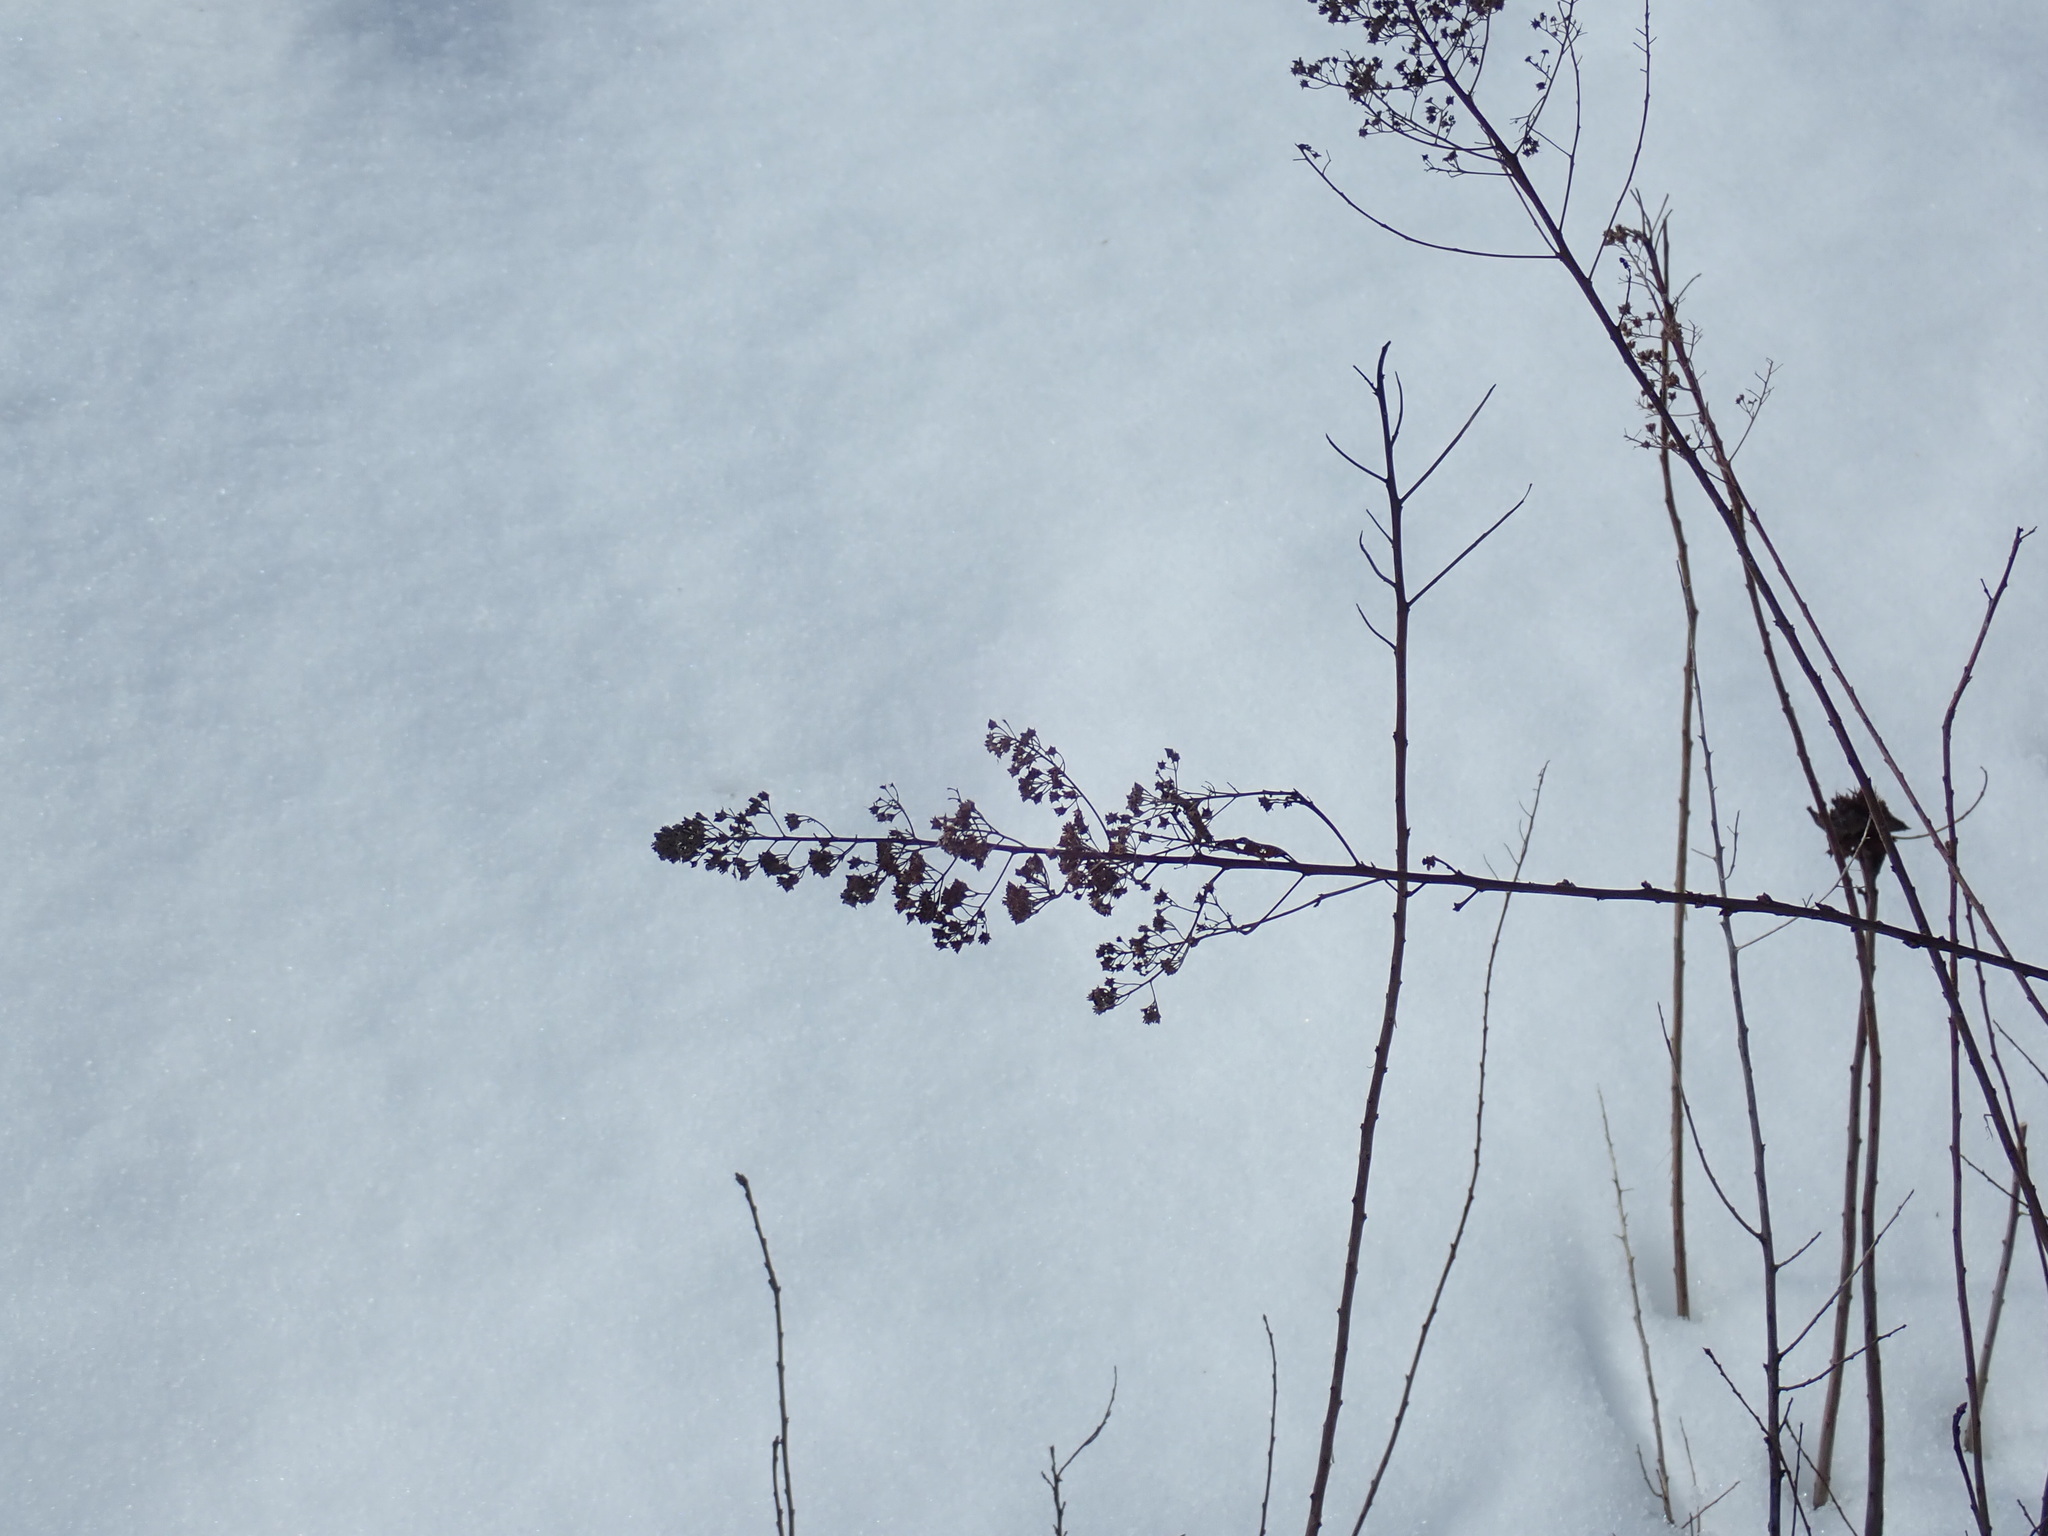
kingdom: Plantae
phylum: Tracheophyta
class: Magnoliopsida
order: Rosales
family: Rosaceae
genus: Spiraea
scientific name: Spiraea alba
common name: Pale bridewort
